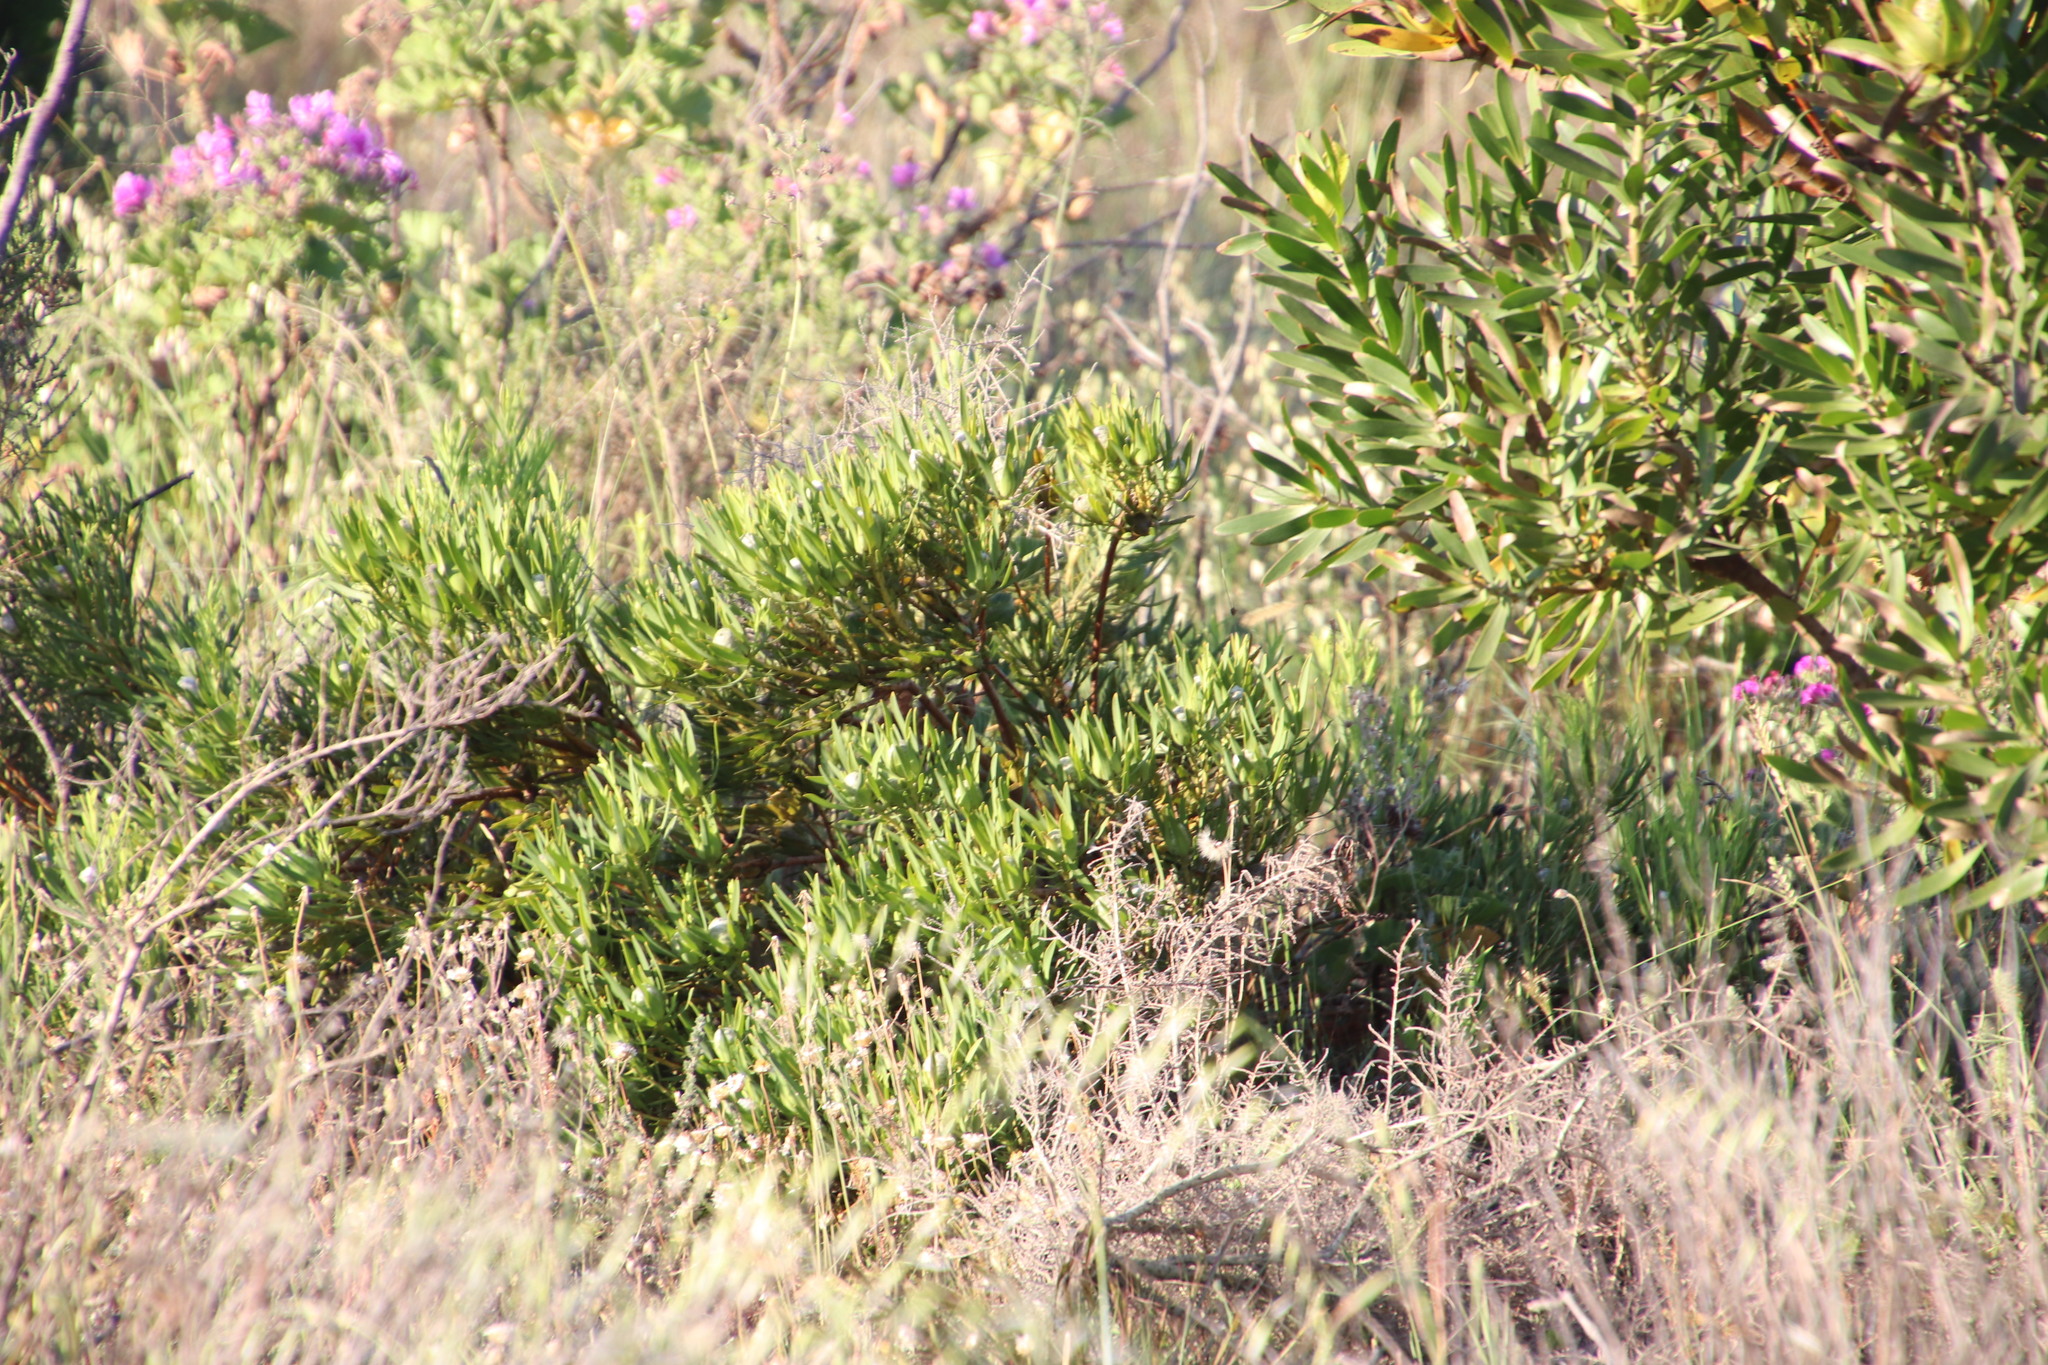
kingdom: Plantae
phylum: Tracheophyta
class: Magnoliopsida
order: Proteales
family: Proteaceae
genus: Leucadendron
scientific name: Leucadendron salignum
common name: Common sunshine conebush
